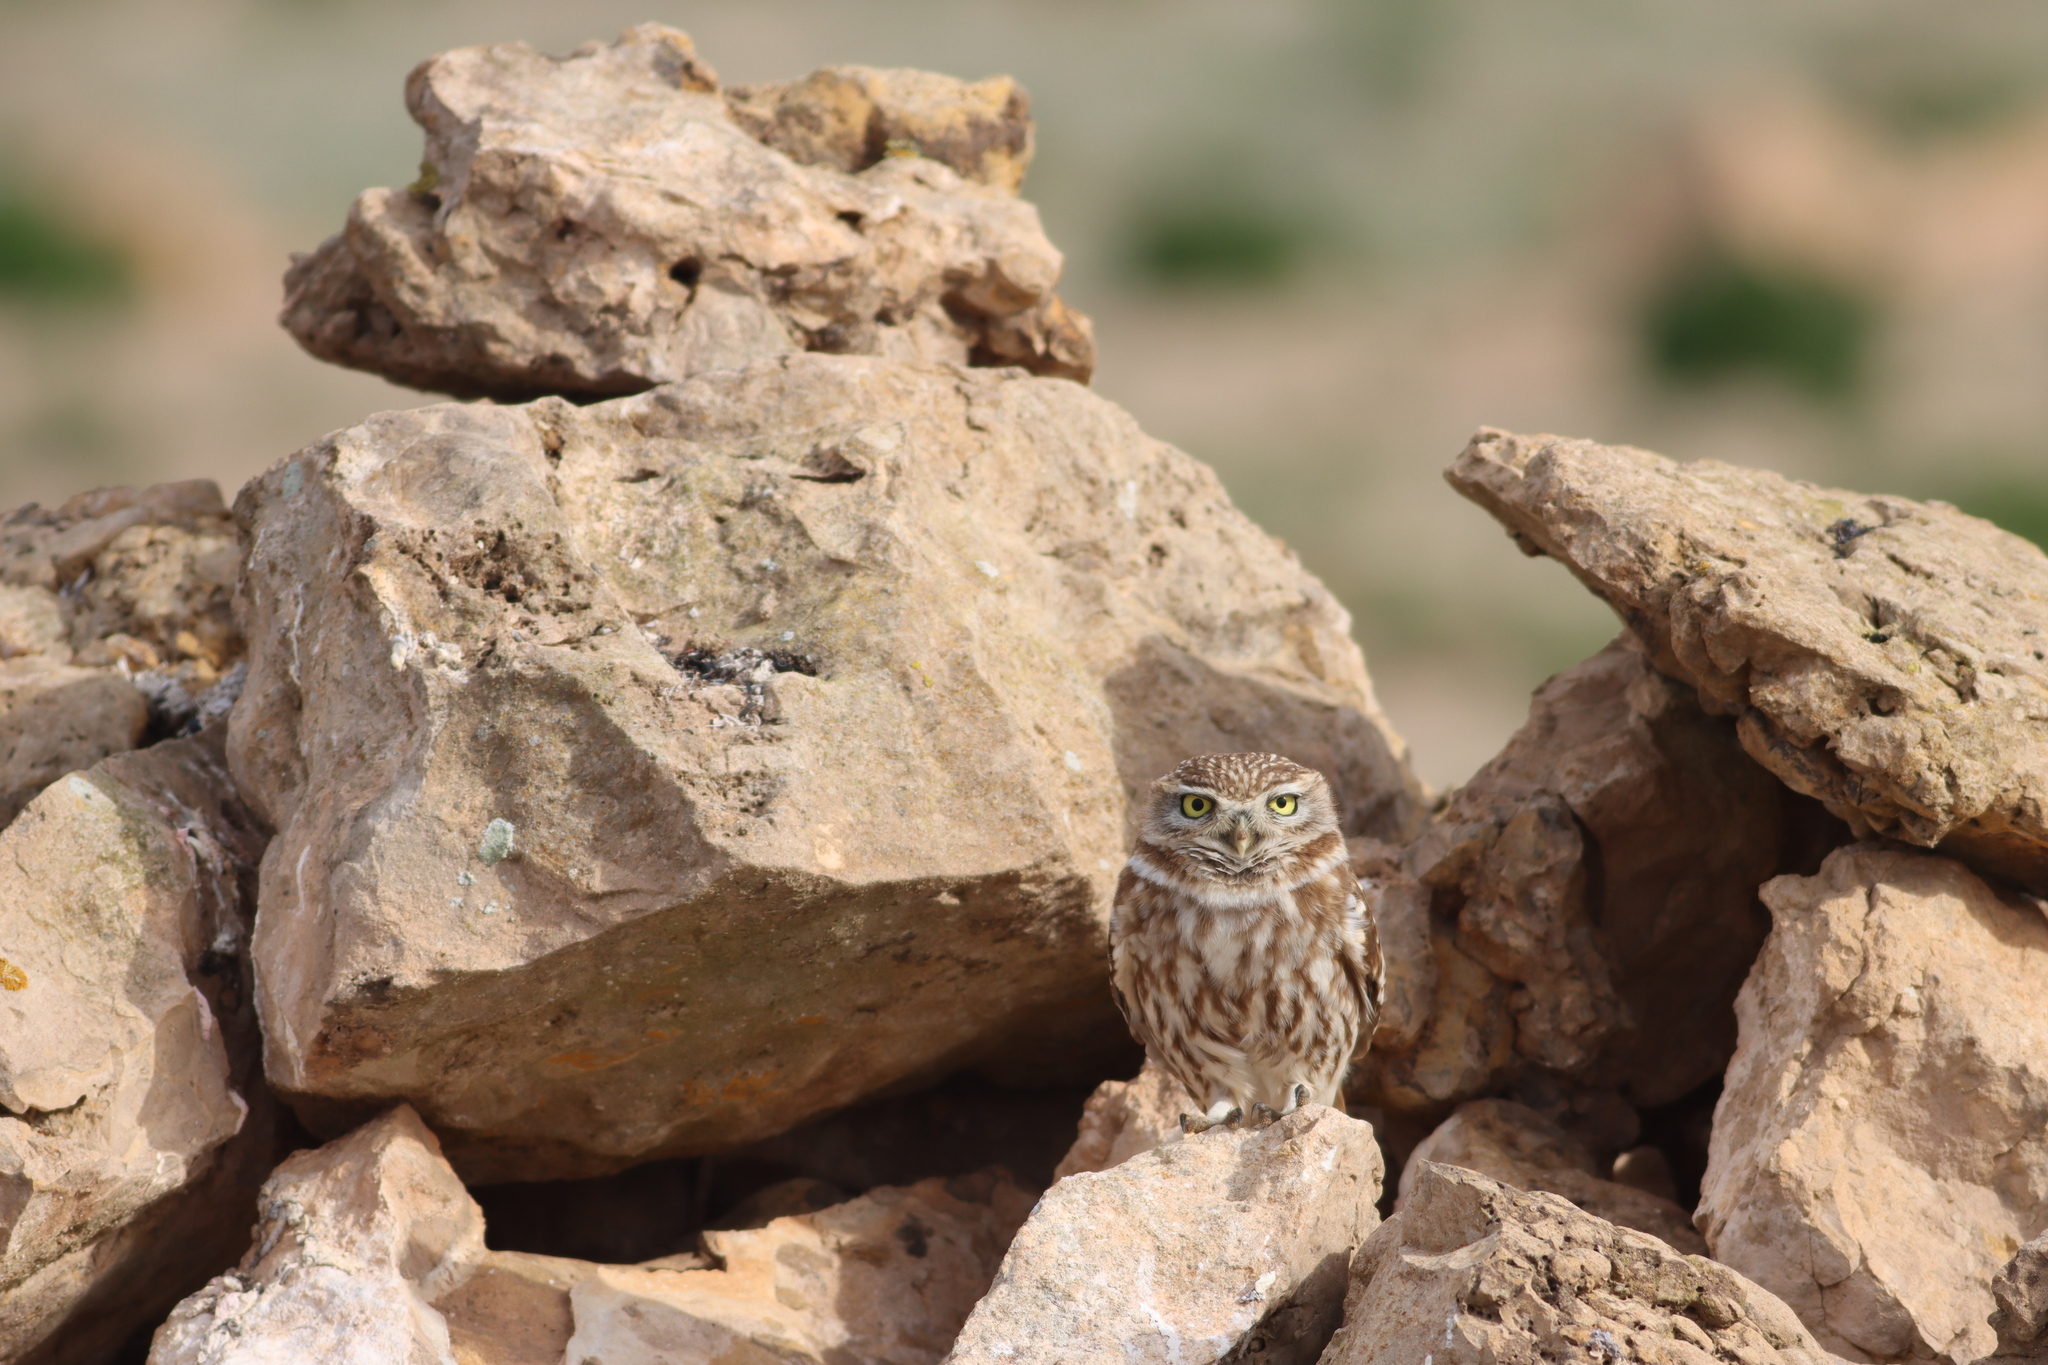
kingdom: Animalia
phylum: Chordata
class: Aves
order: Strigiformes
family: Strigidae
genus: Athene
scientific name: Athene noctua
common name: Little owl
